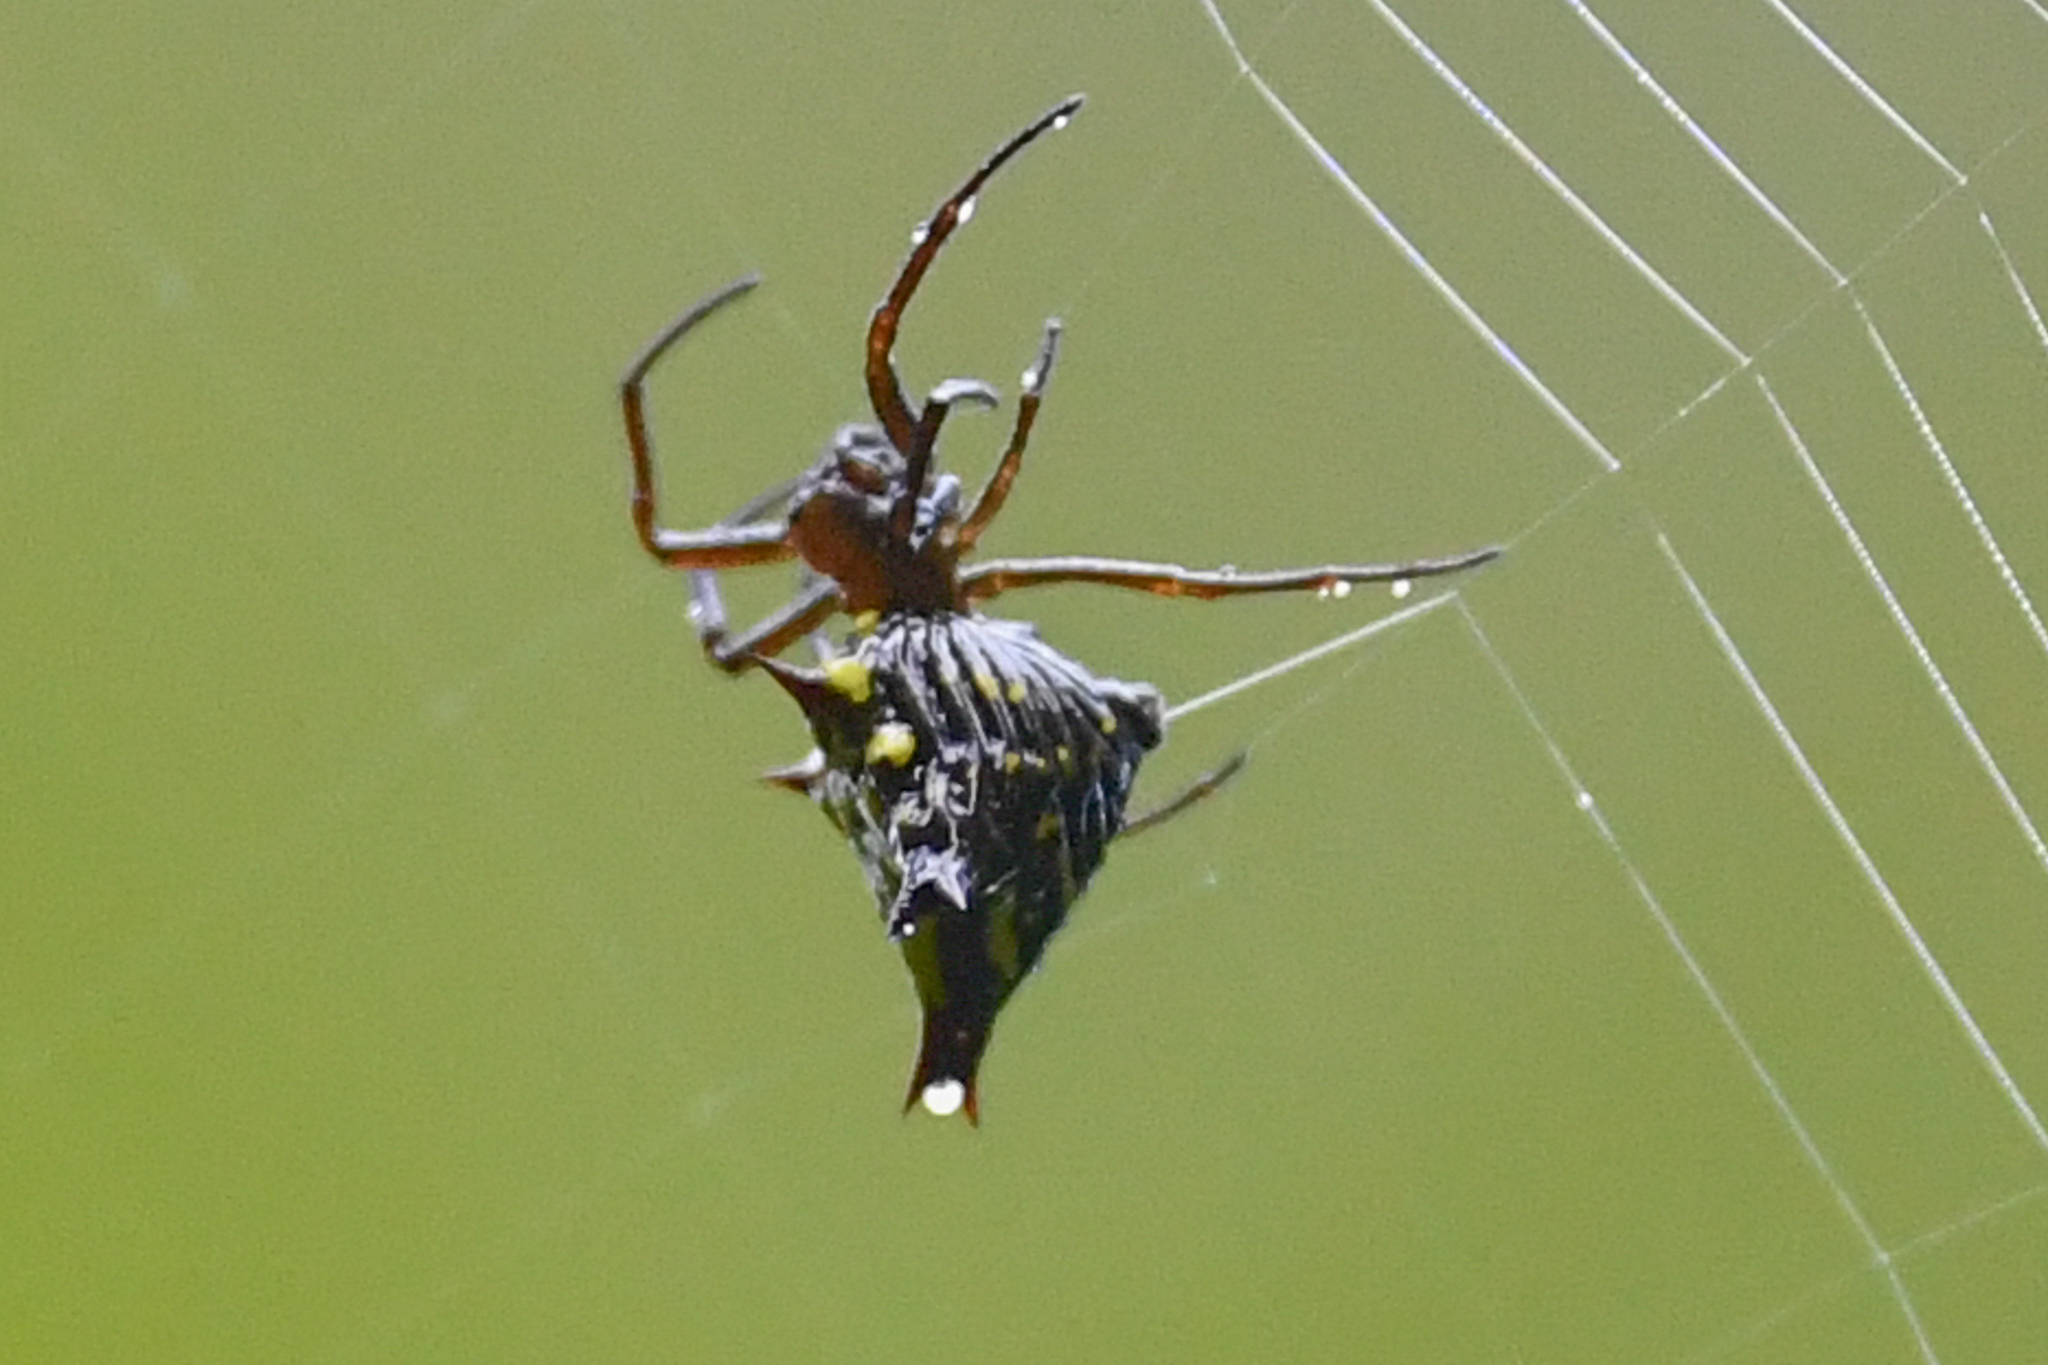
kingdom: Animalia
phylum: Arthropoda
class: Arachnida
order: Araneae
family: Araneidae
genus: Micrathena
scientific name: Micrathena crassa
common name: Orb weavers
